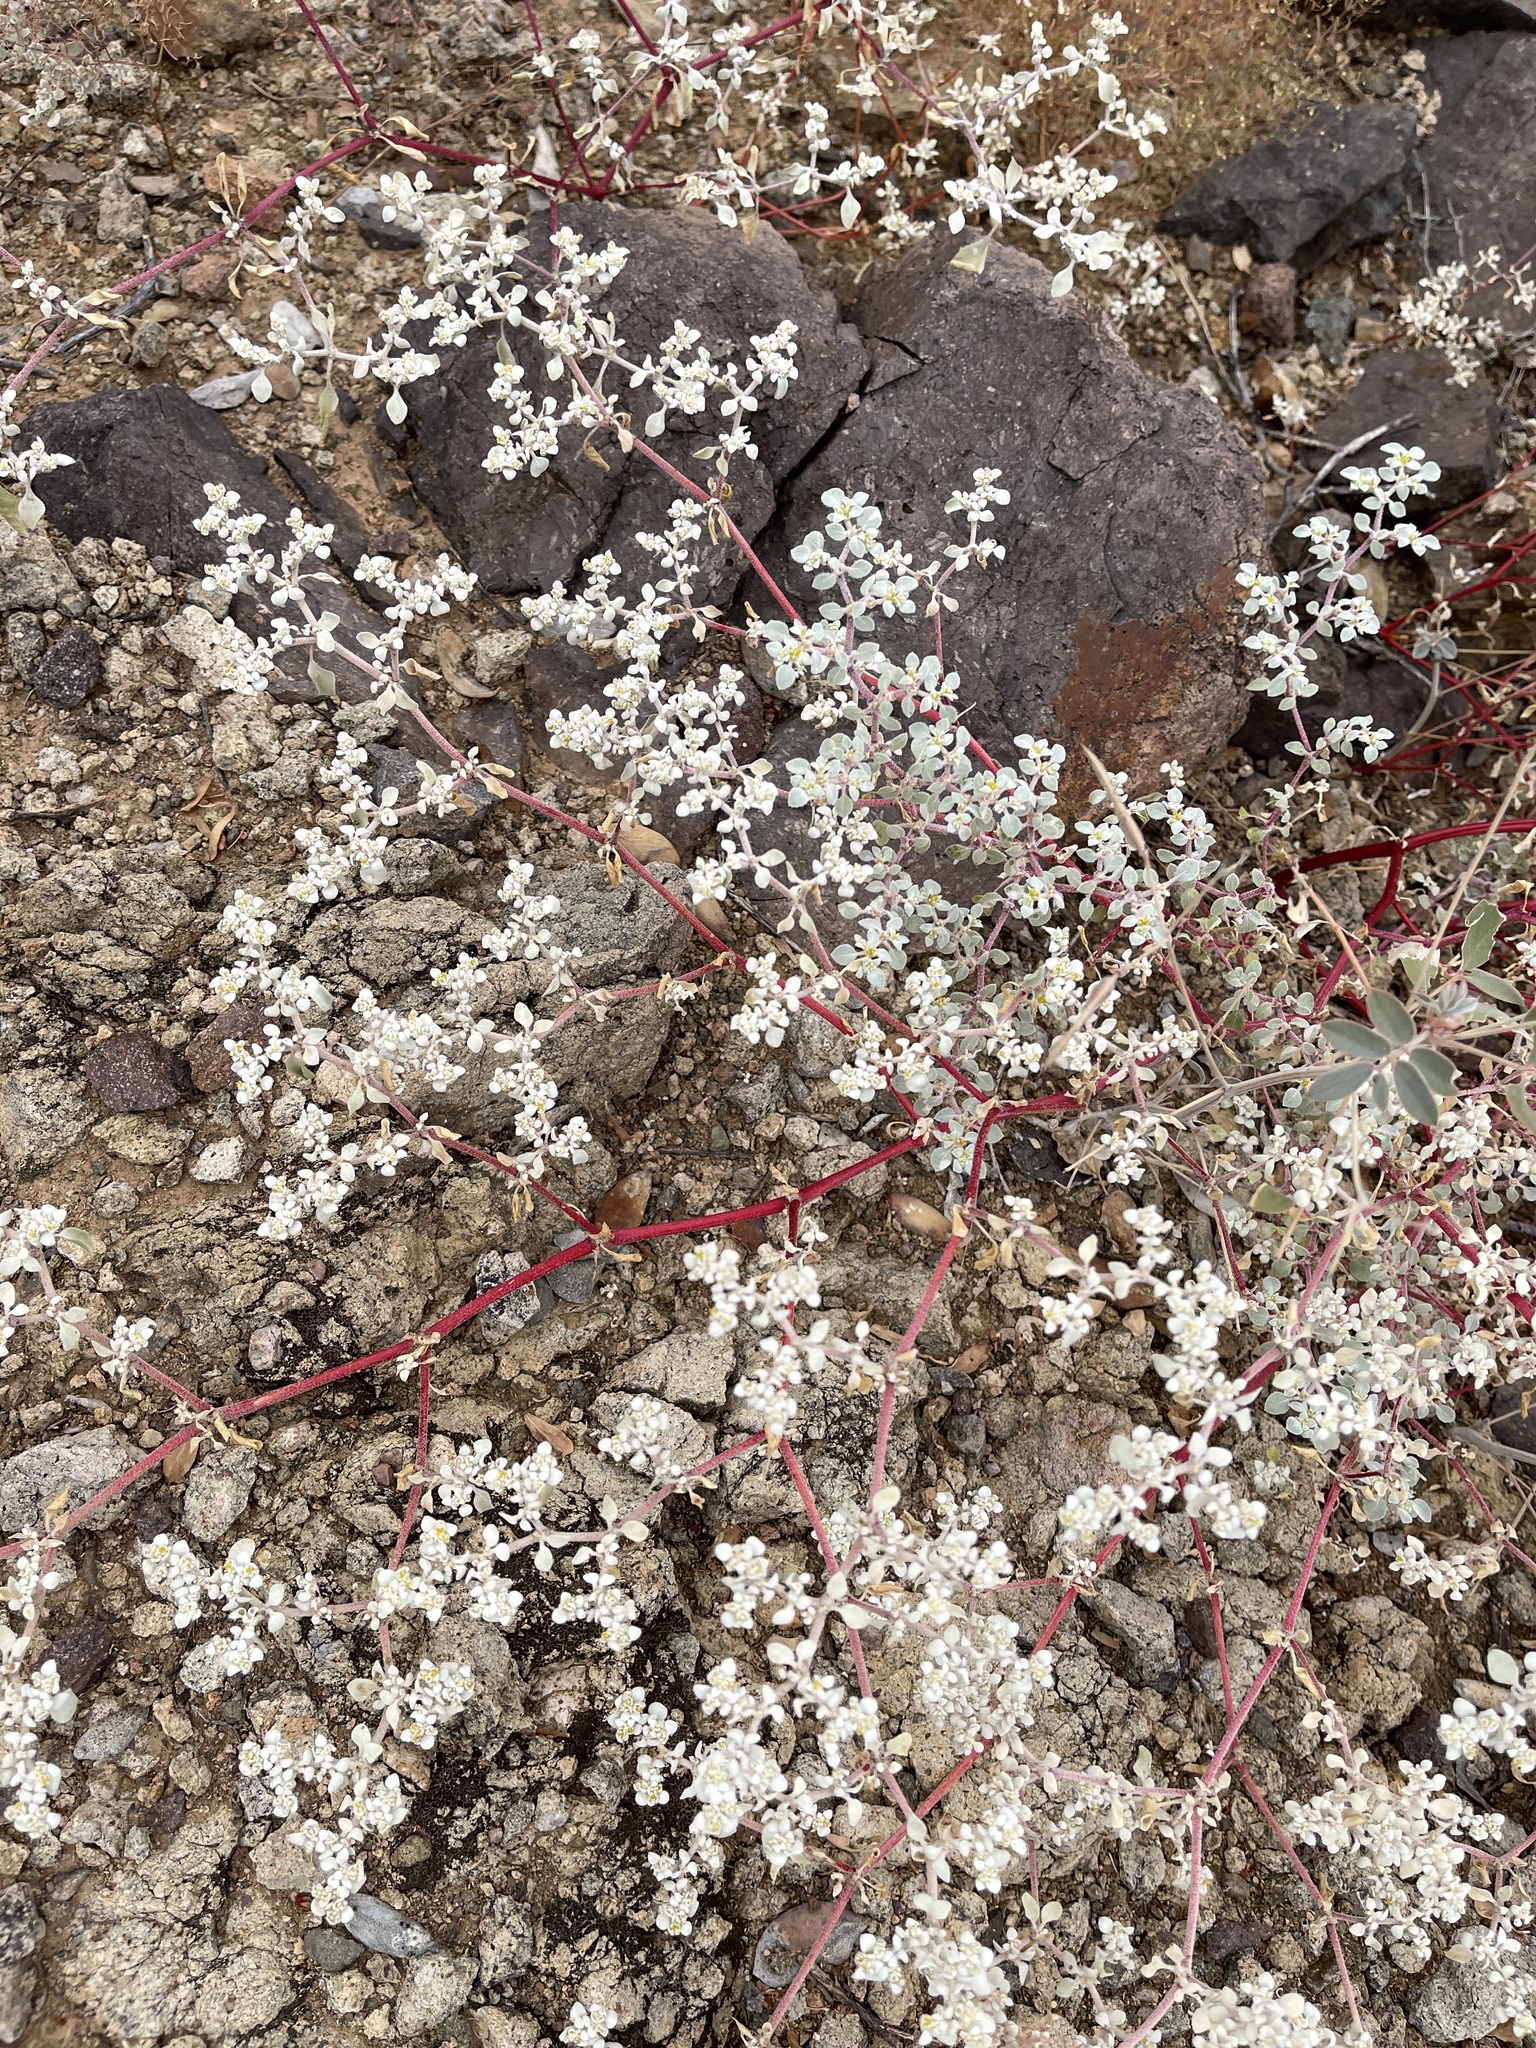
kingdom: Plantae
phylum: Tracheophyta
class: Magnoliopsida
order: Caryophyllales
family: Amaranthaceae
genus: Tidestromia
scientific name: Tidestromia lanuginosa
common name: Woolly tidestromia
